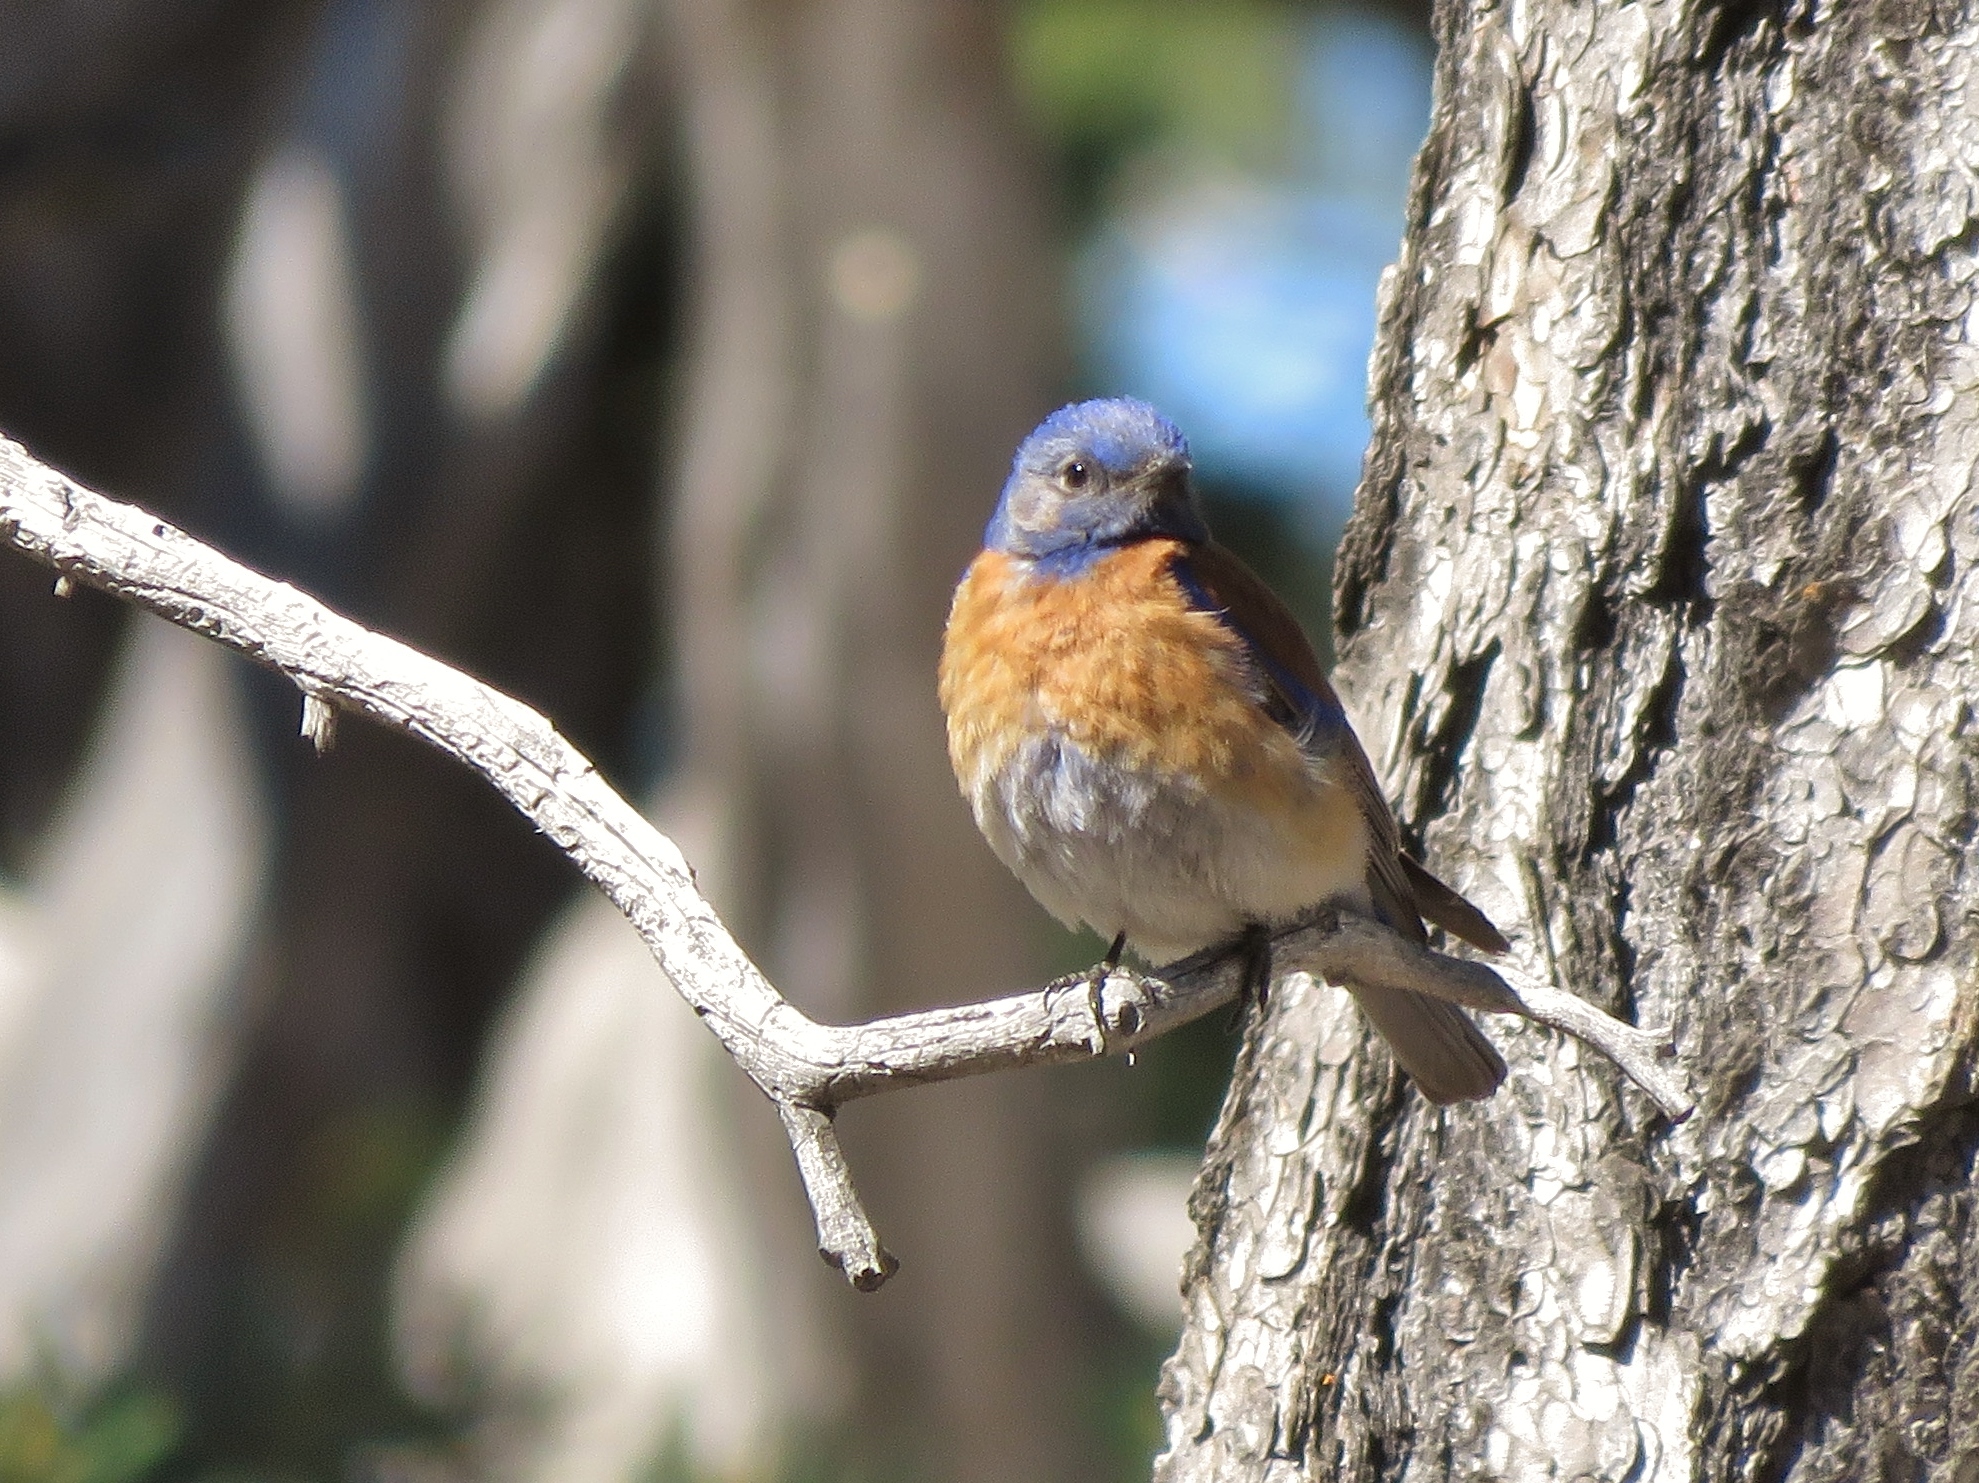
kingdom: Animalia
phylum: Chordata
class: Aves
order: Passeriformes
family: Turdidae
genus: Sialia
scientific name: Sialia mexicana
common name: Western bluebird
